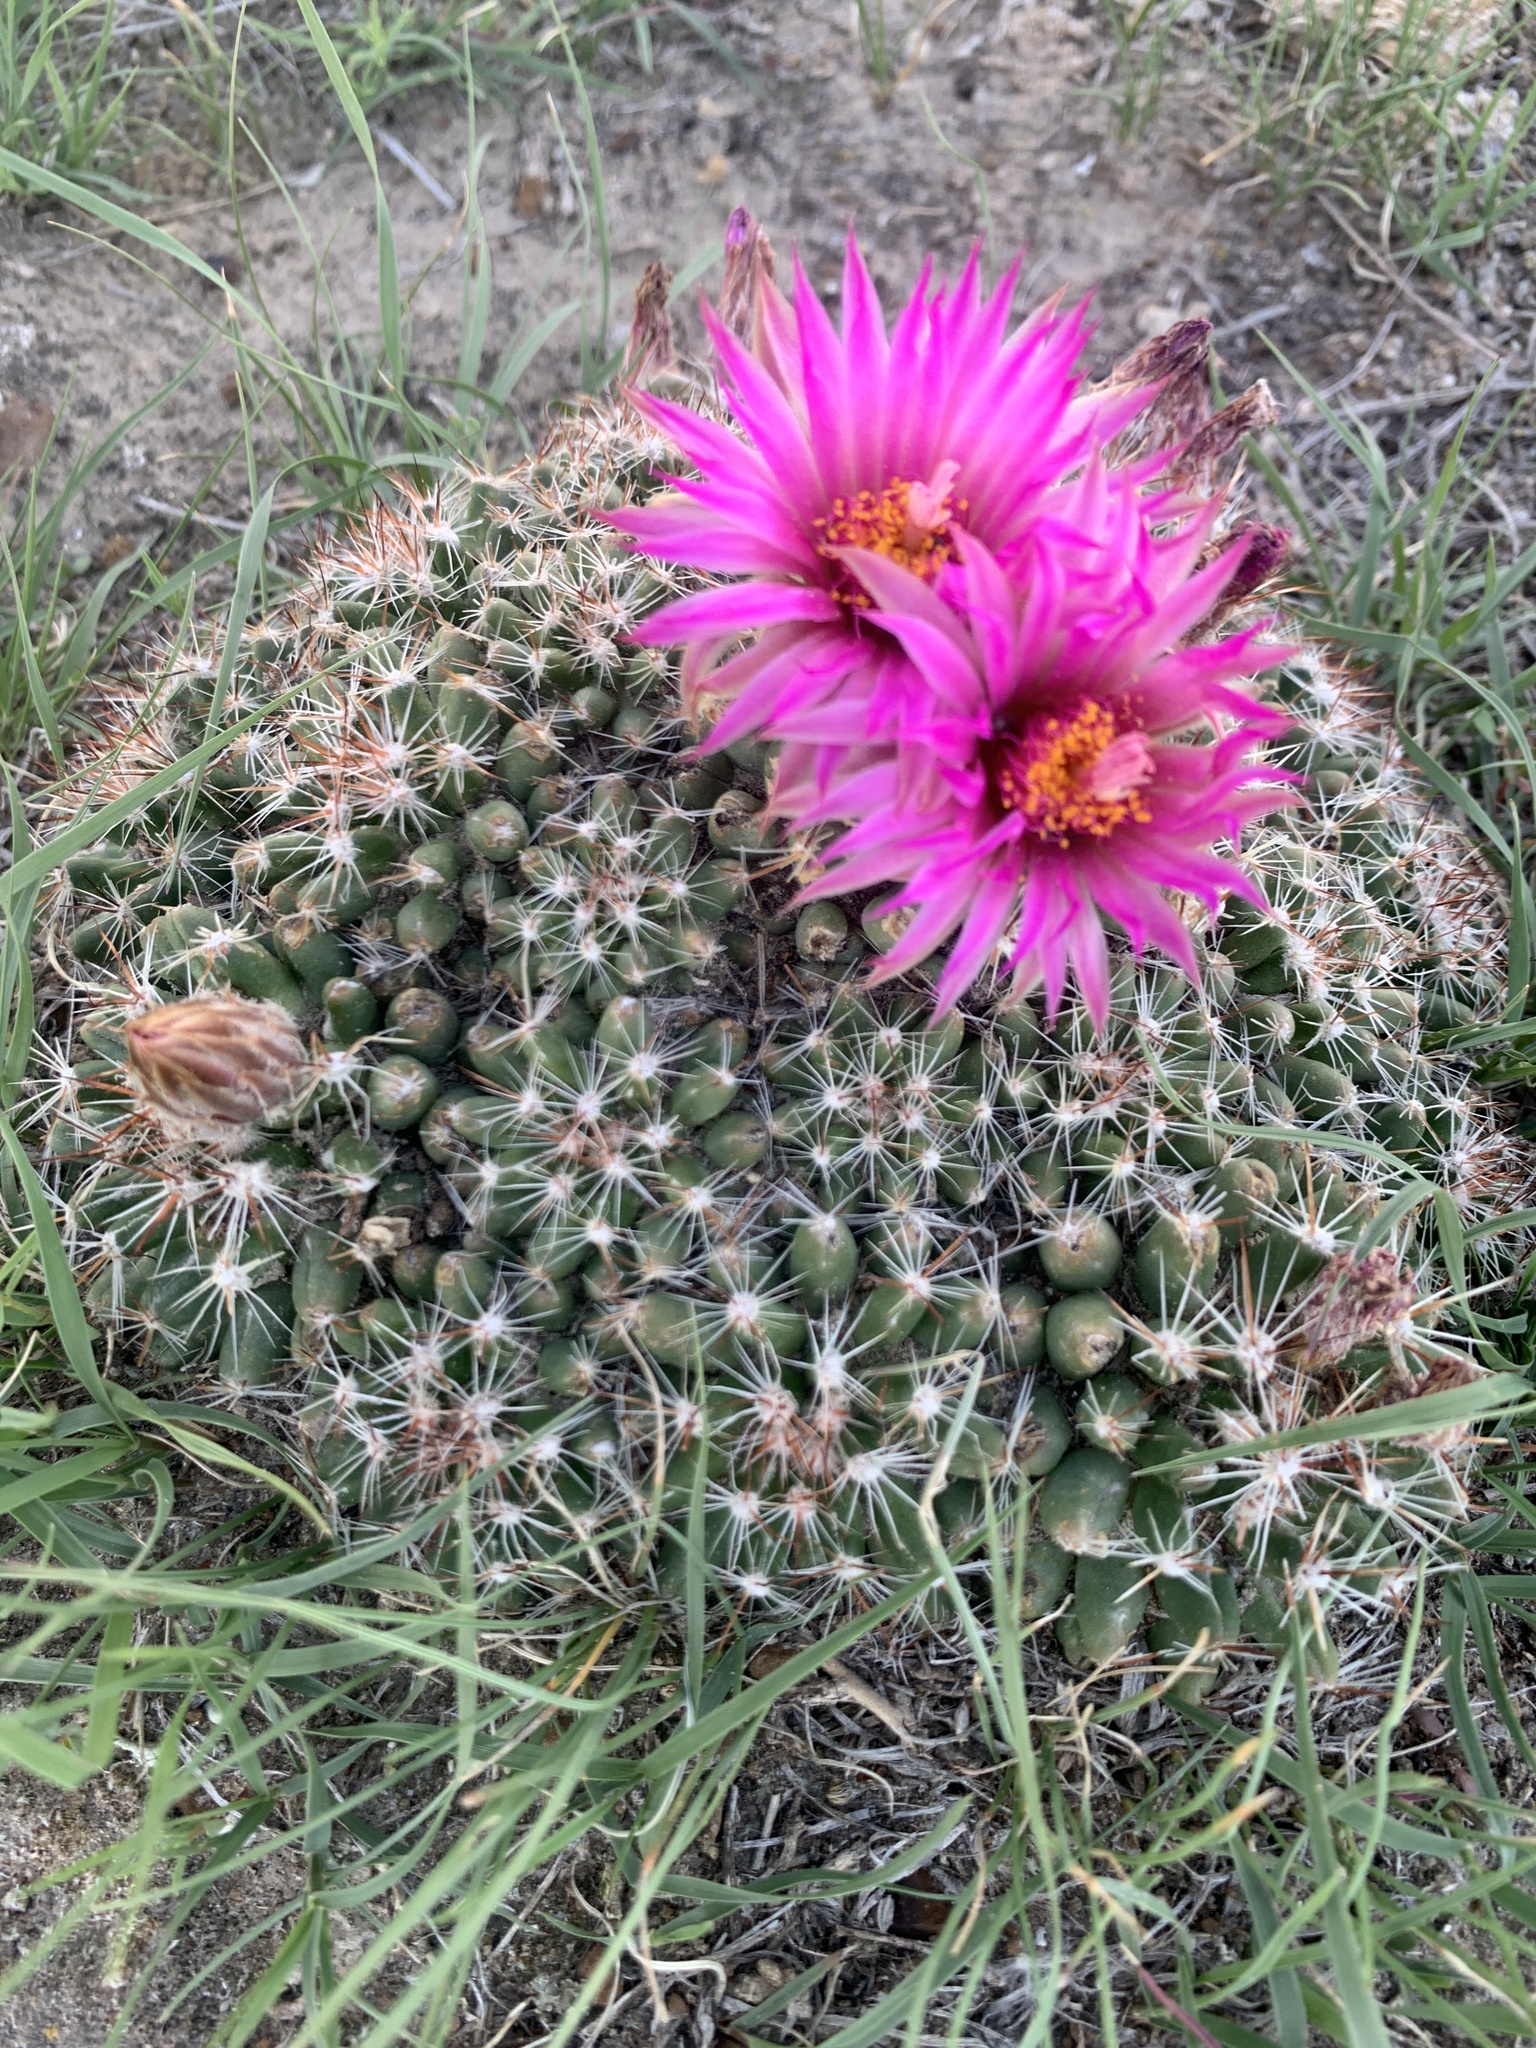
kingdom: Plantae
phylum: Tracheophyta
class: Magnoliopsida
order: Caryophyllales
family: Cactaceae
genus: Pelecyphora
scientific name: Pelecyphora vivipara
